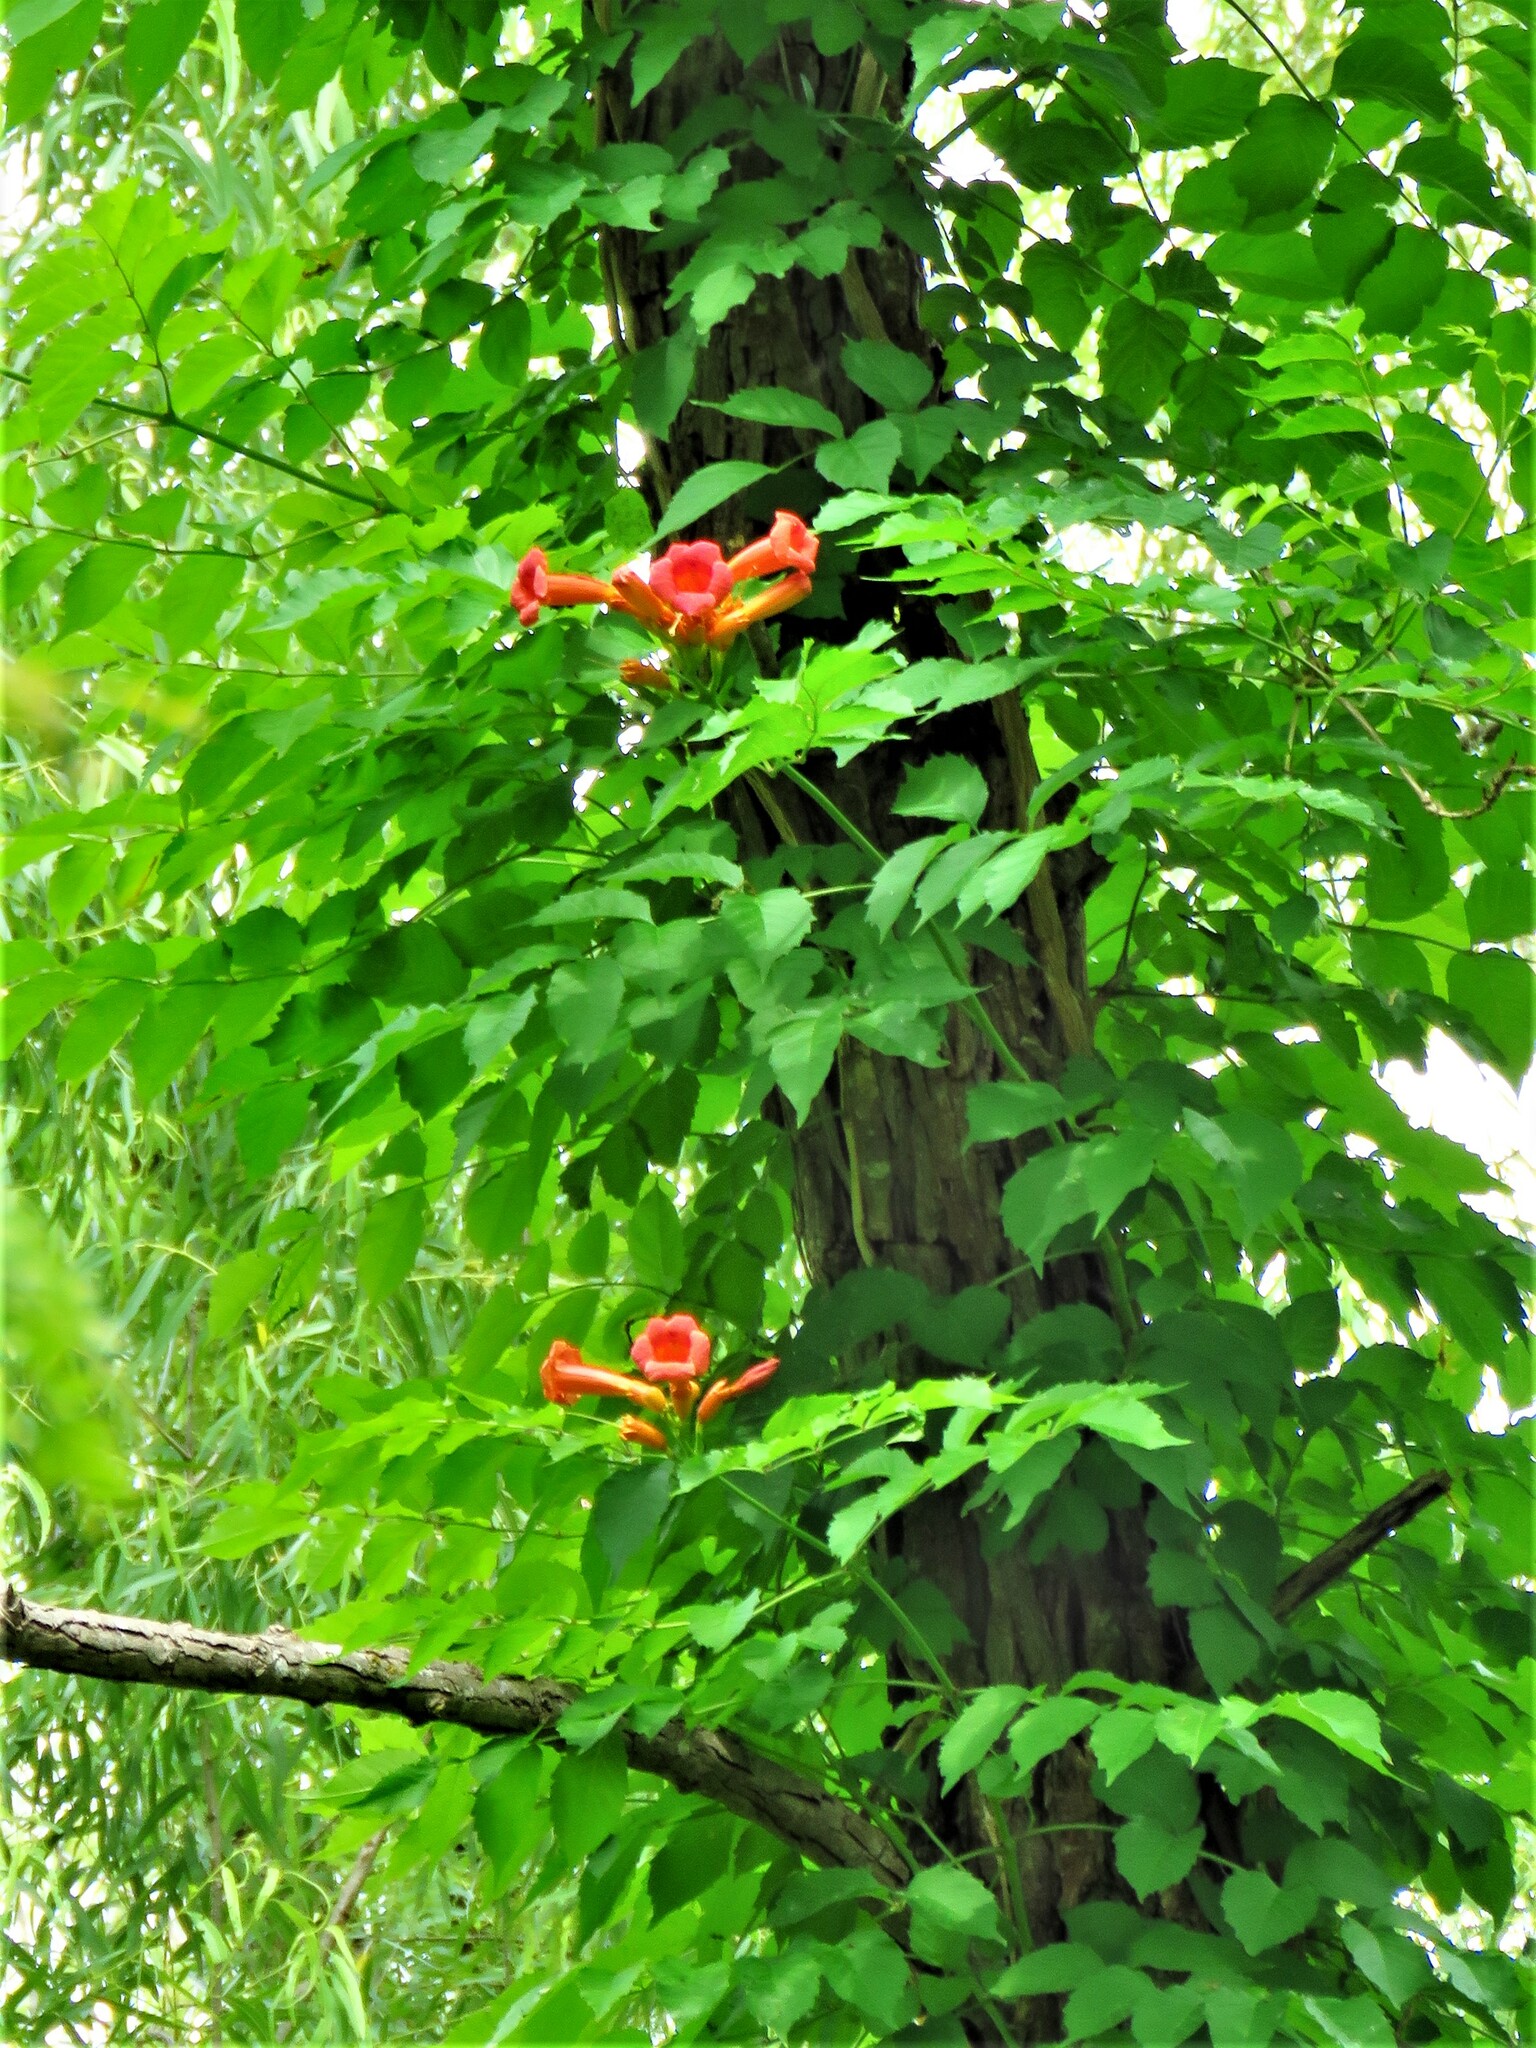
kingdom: Plantae
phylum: Tracheophyta
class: Magnoliopsida
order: Lamiales
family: Bignoniaceae
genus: Campsis
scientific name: Campsis radicans
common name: Trumpet-creeper
